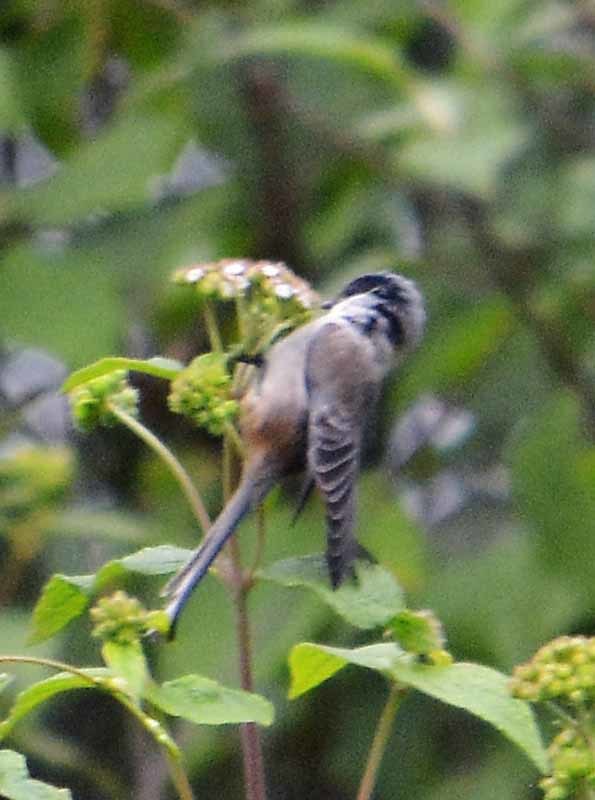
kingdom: Animalia
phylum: Chordata
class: Aves
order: Passeriformes
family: Aegithalidae
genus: Psaltriparus
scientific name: Psaltriparus minimus
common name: American bushtit
